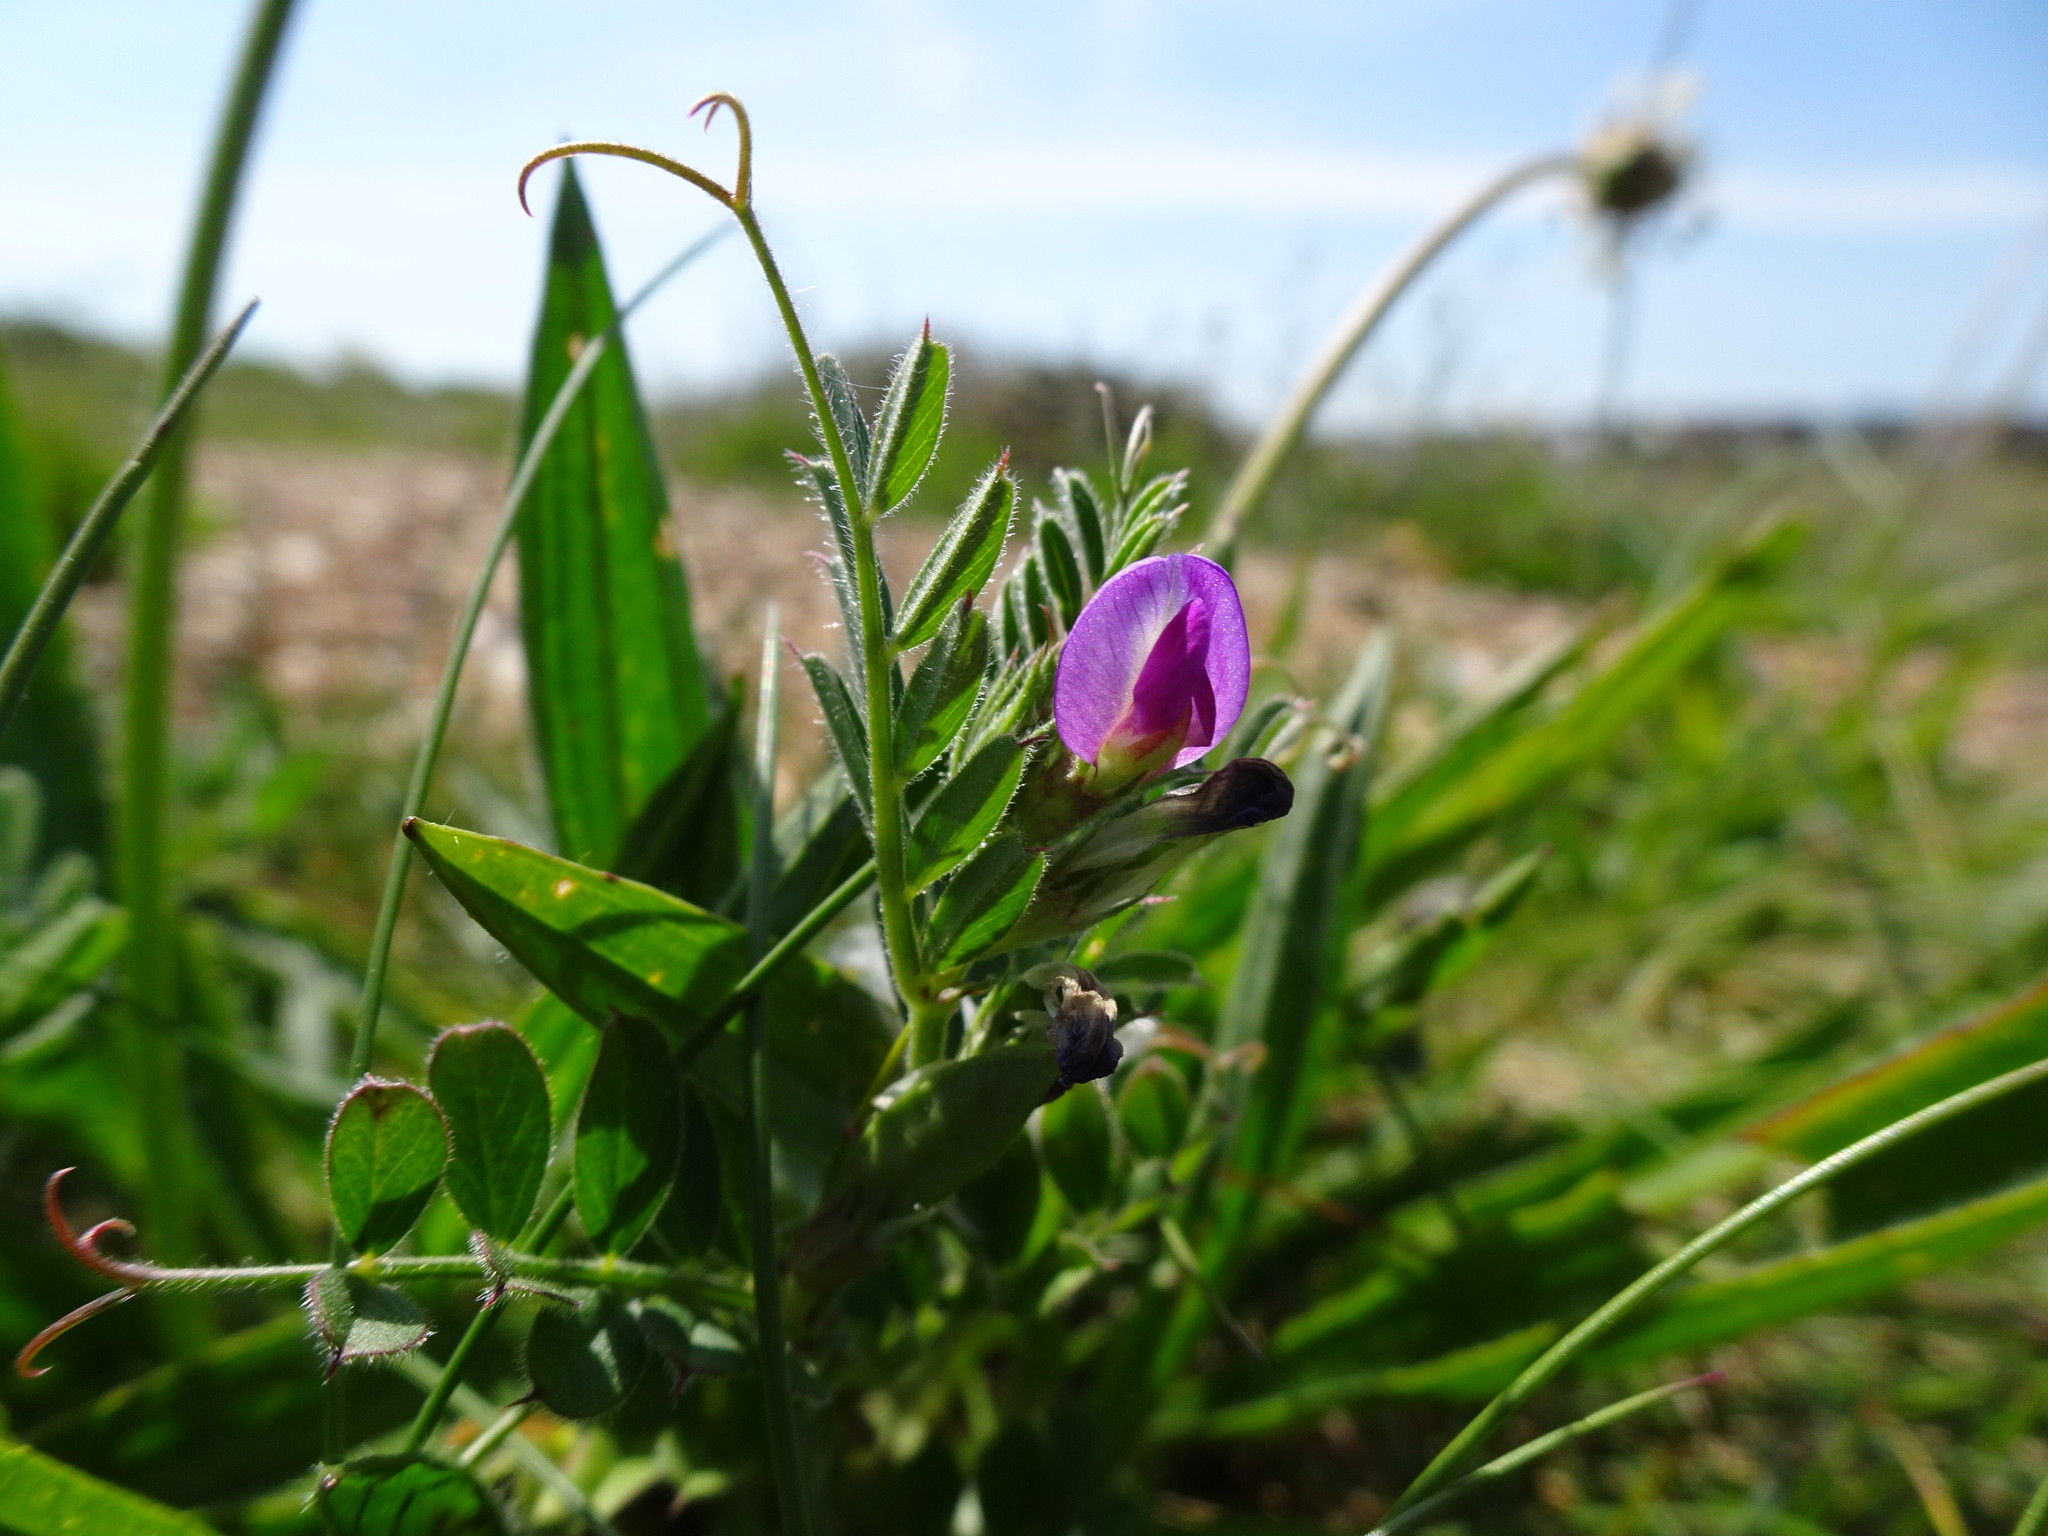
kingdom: Plantae
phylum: Tracheophyta
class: Magnoliopsida
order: Fabales
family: Fabaceae
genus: Vicia
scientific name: Vicia sativa
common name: Garden vetch
